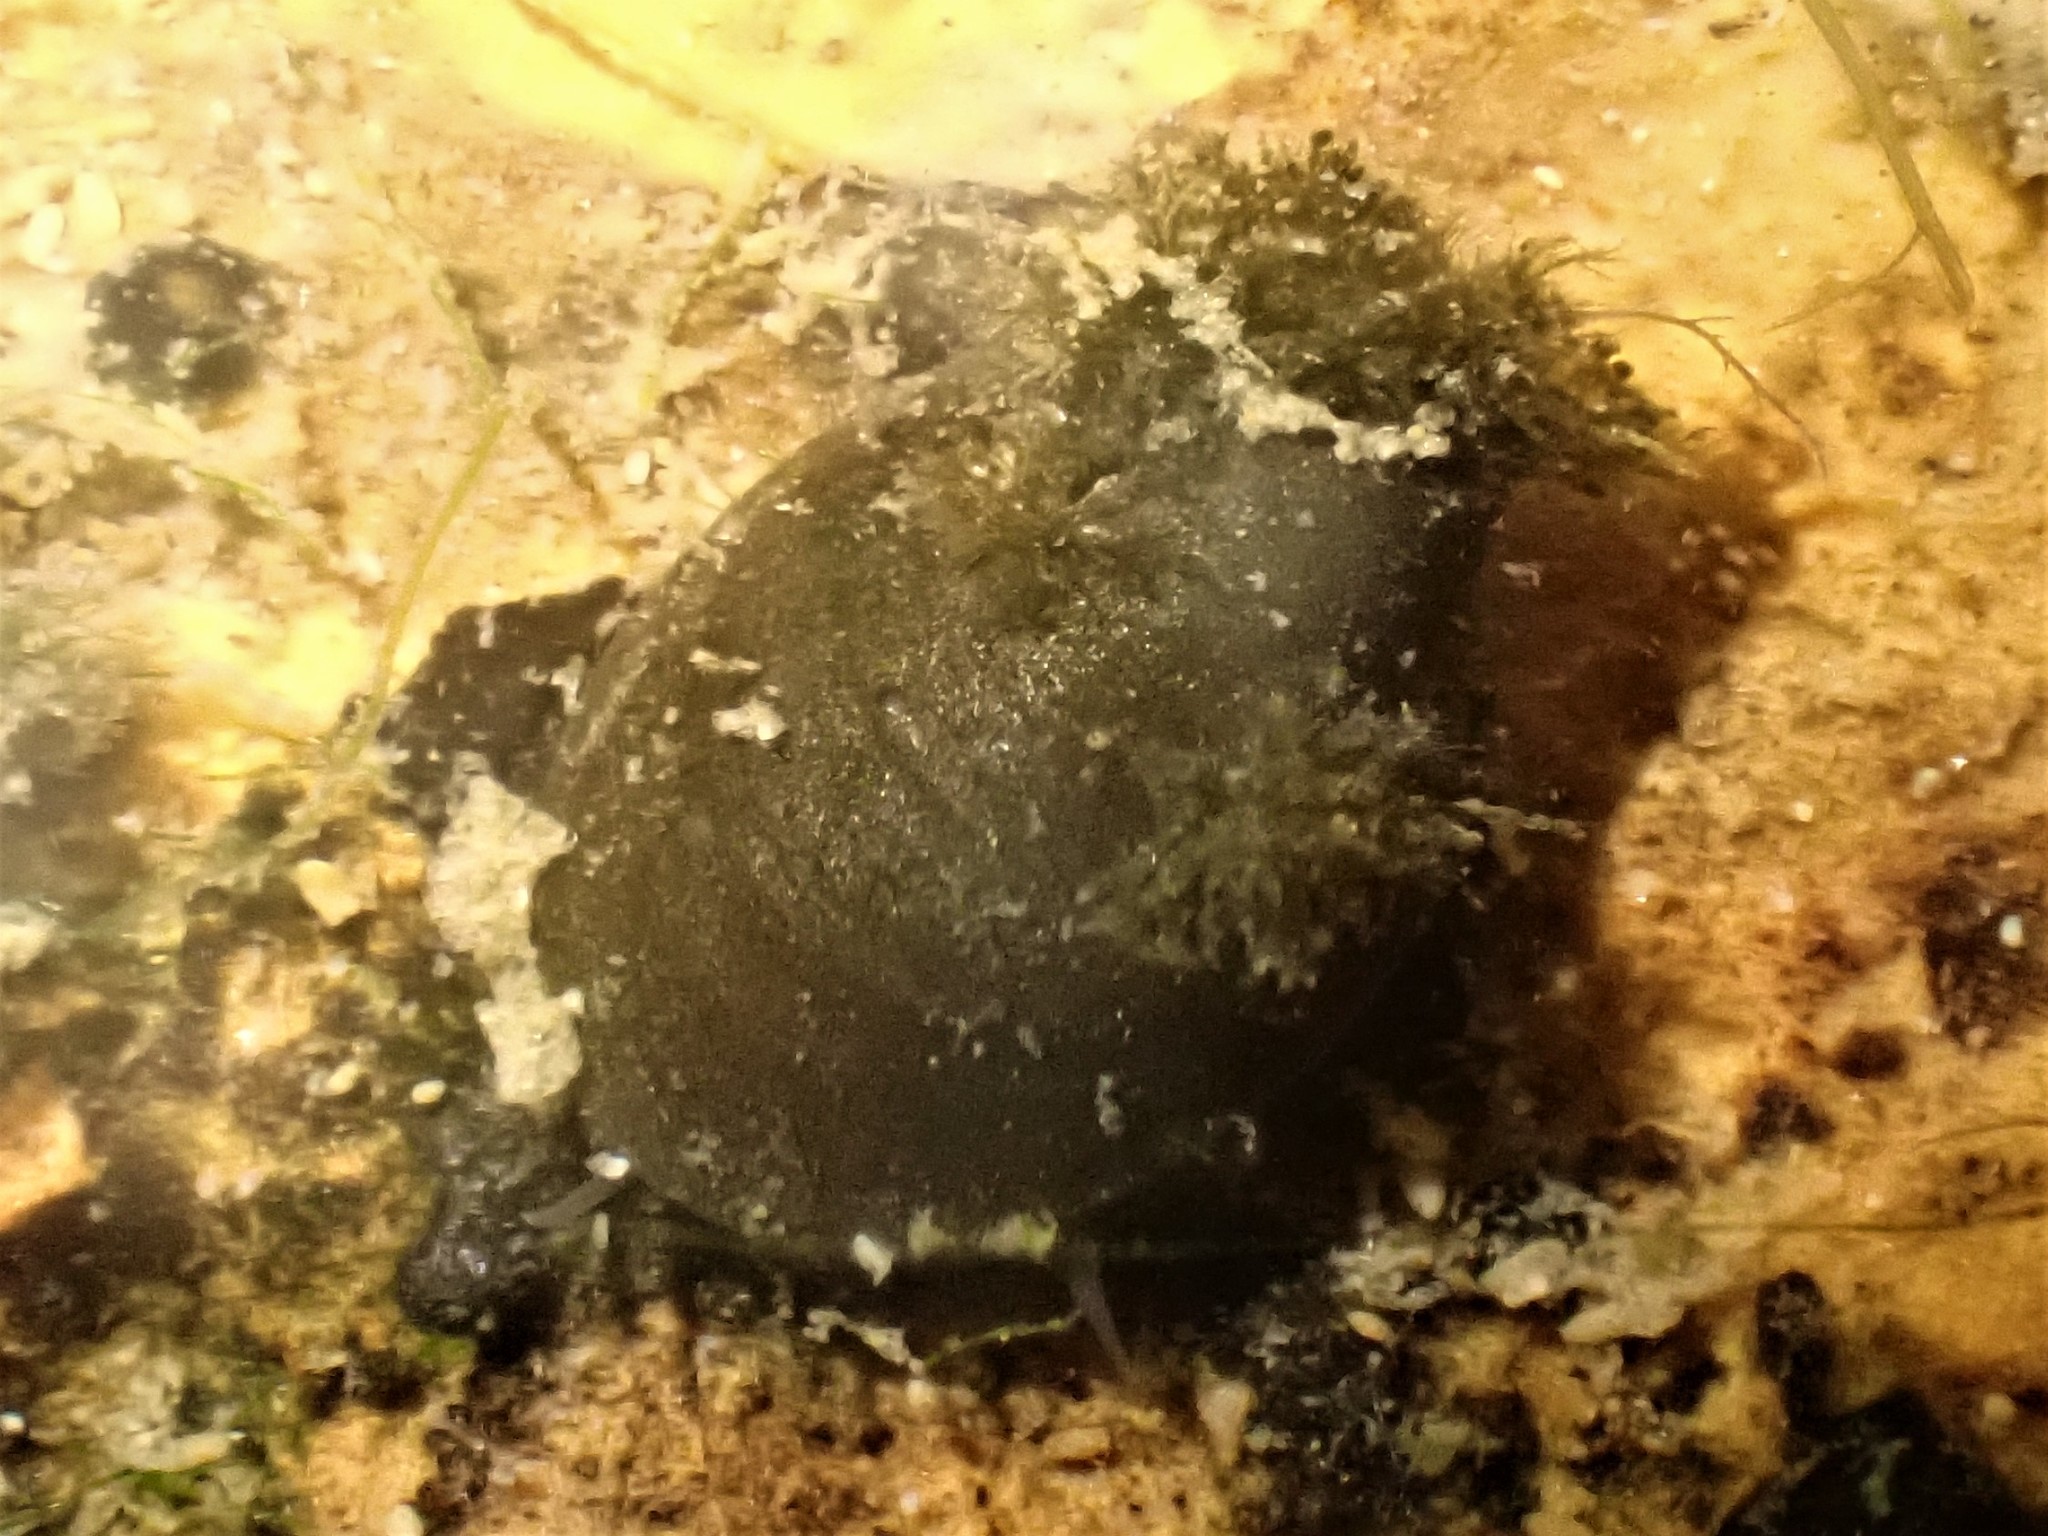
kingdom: Animalia
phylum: Mollusca
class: Gastropoda
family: Latiidae
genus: Latia
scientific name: Latia neritoides
